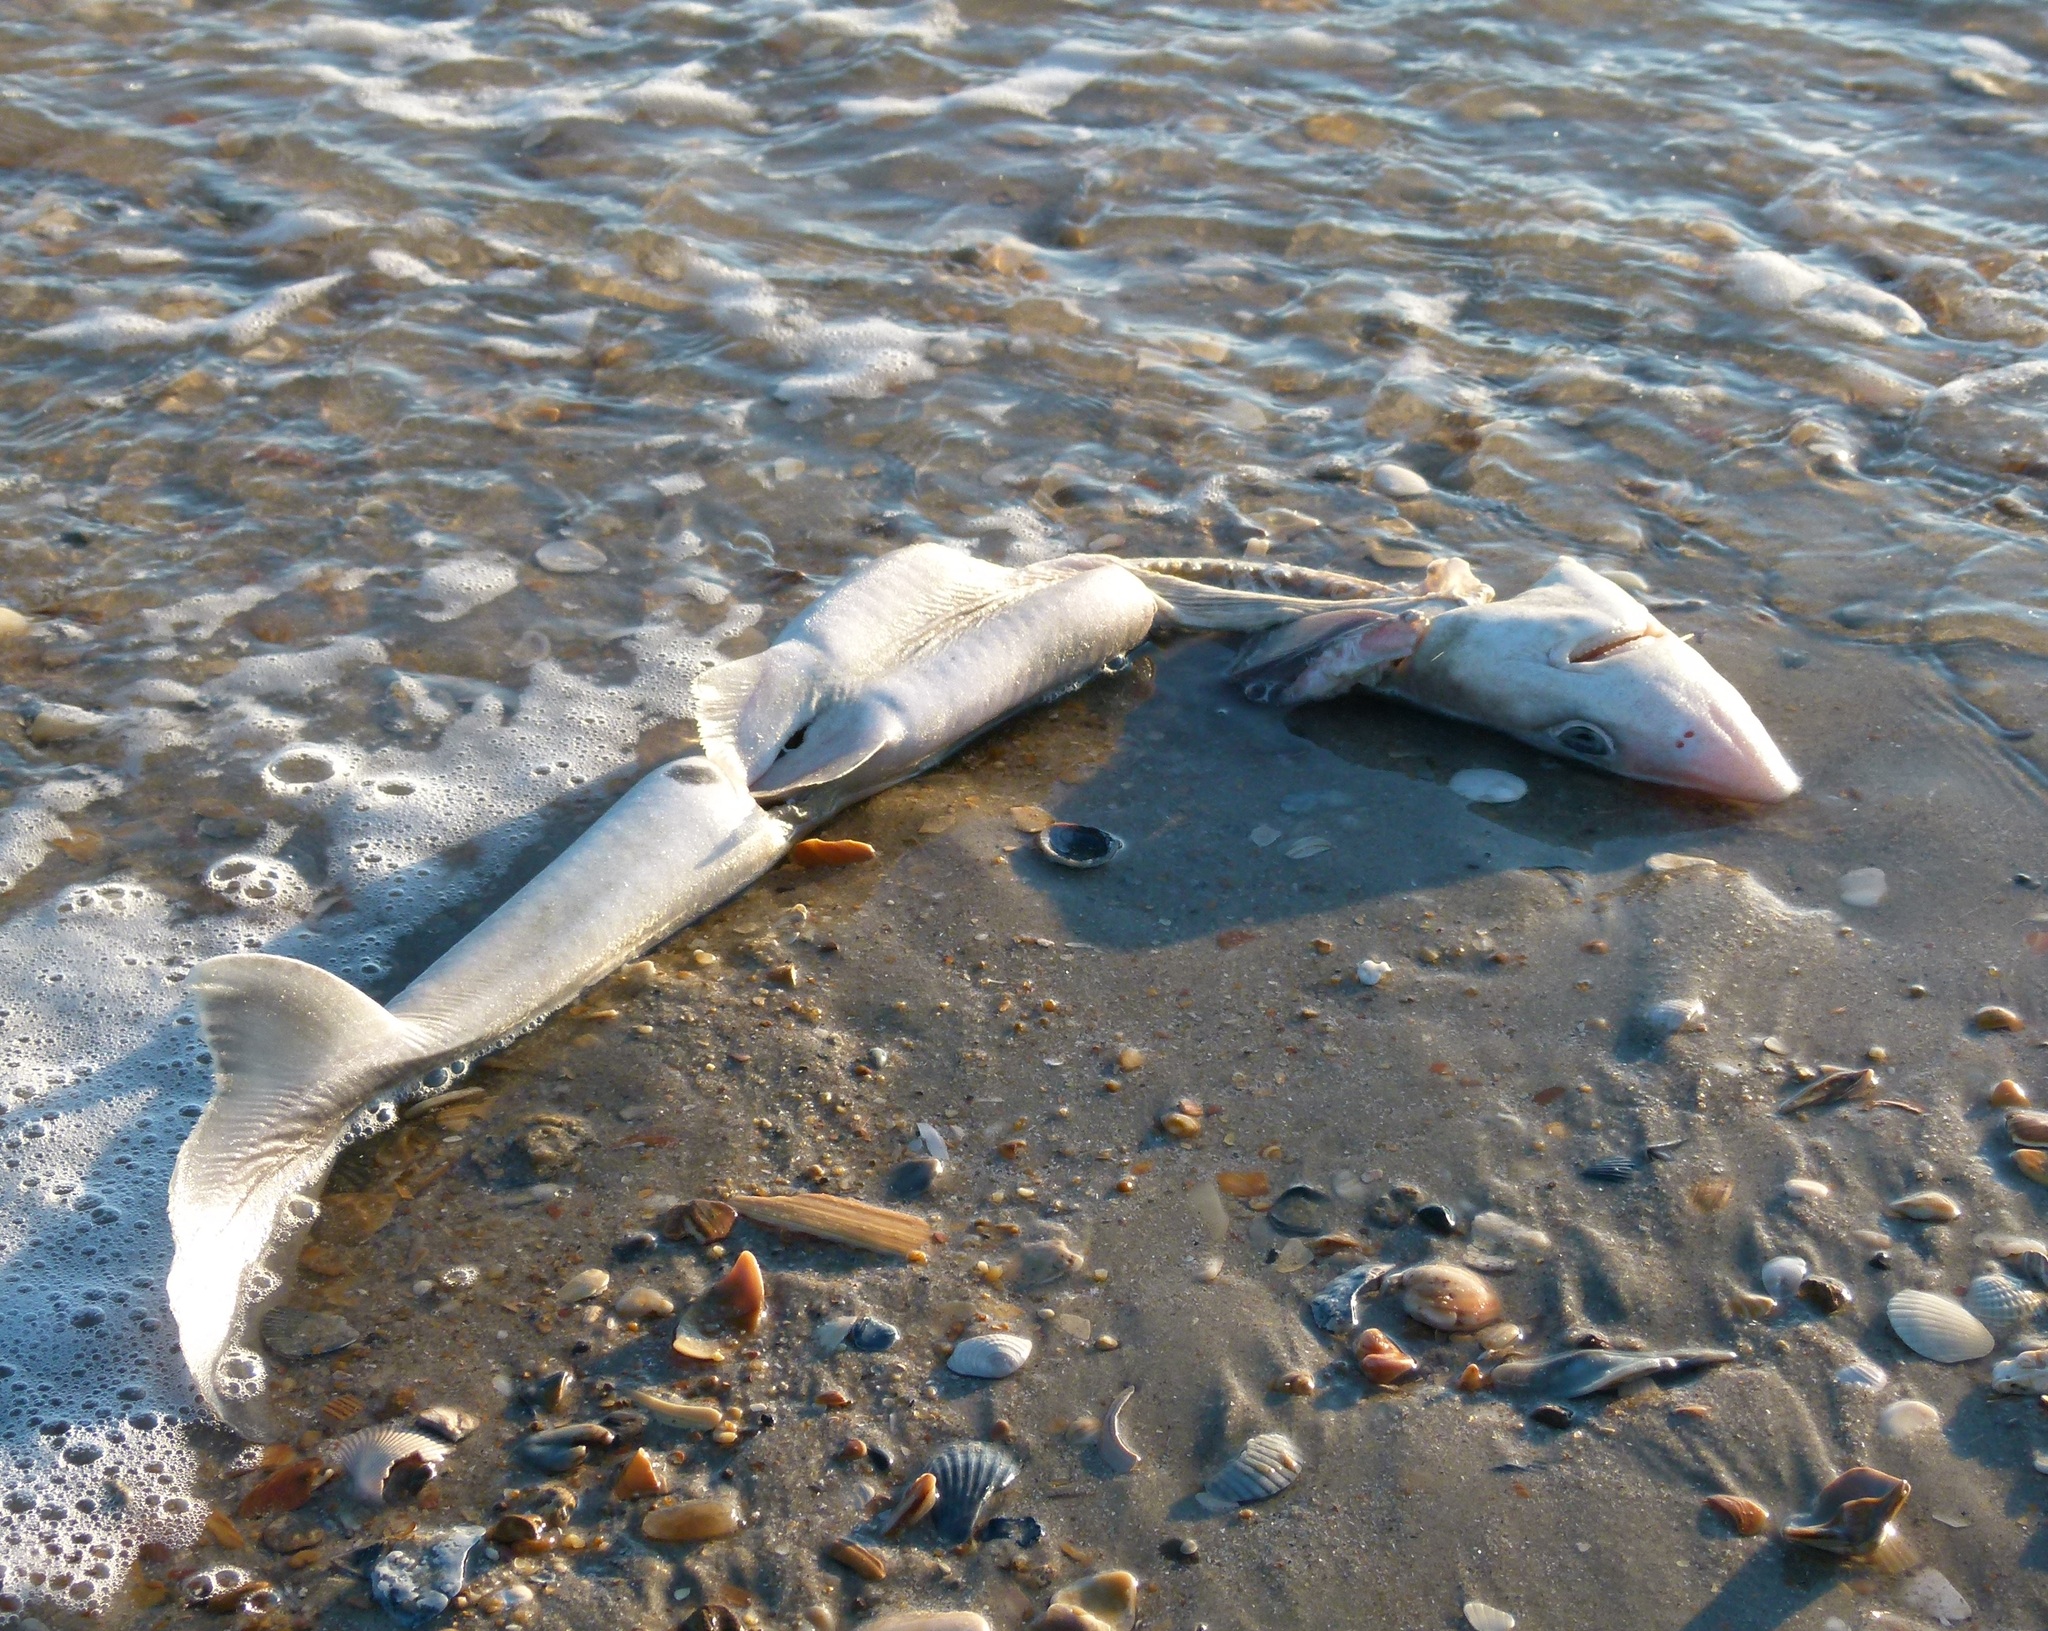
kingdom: Animalia
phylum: Chordata
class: Elasmobranchii
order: Squaliformes
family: Squalidae
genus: Squalus
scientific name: Squalus acanthias
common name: Spurdog
